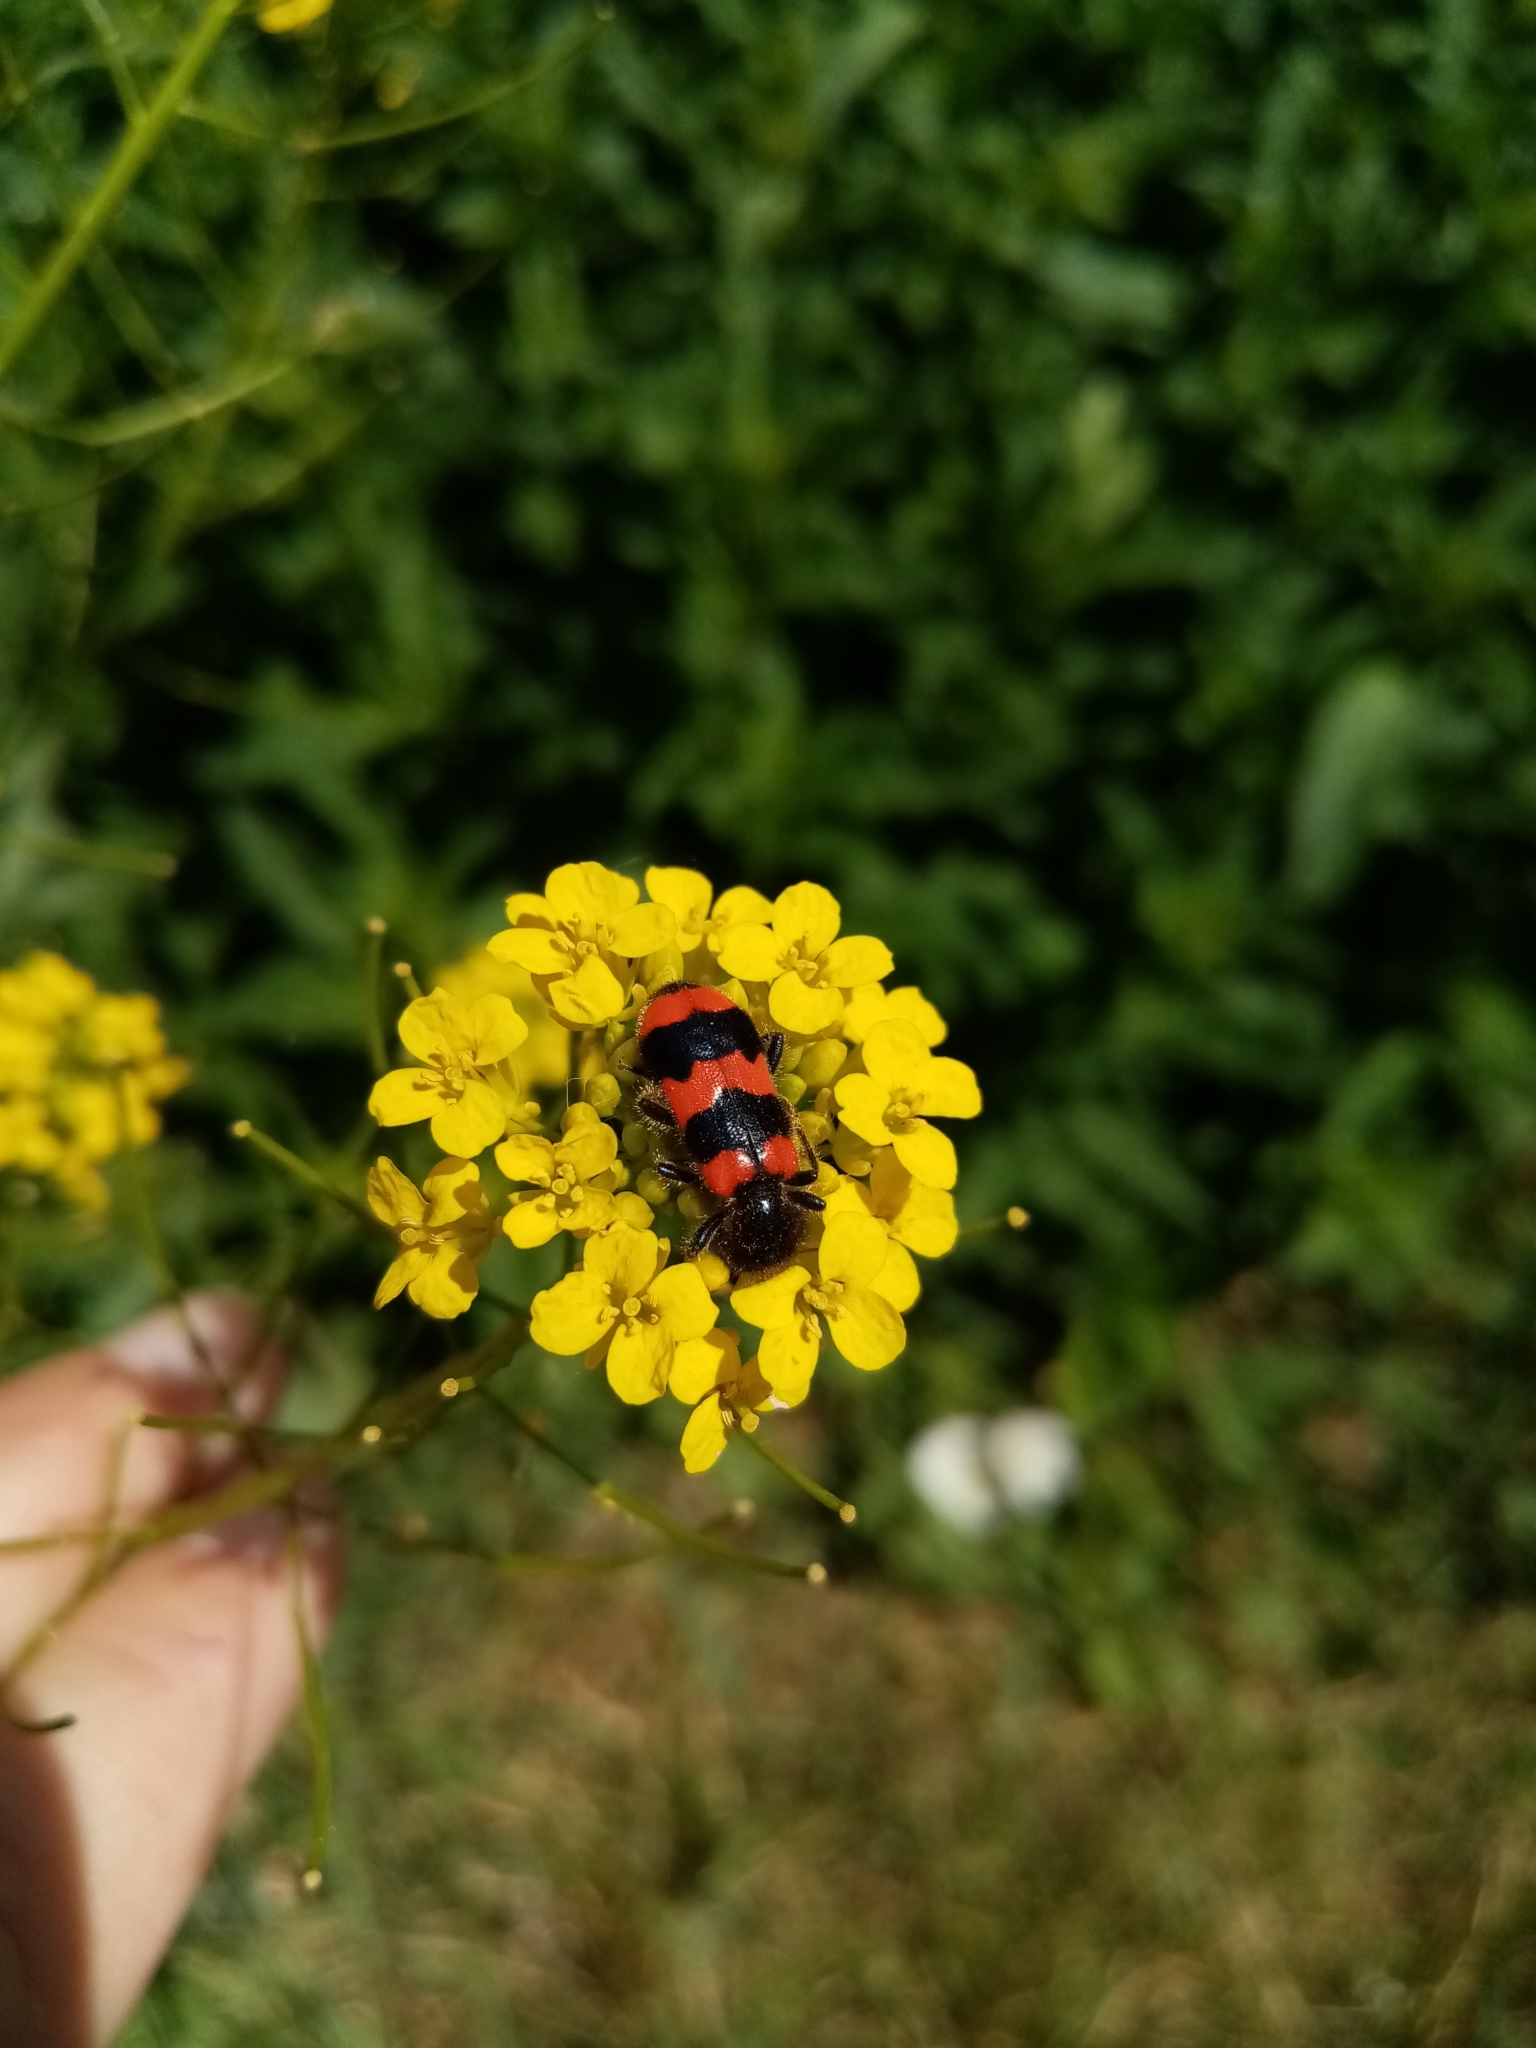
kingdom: Animalia
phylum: Arthropoda
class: Insecta
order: Coleoptera
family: Cleridae
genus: Trichodes
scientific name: Trichodes apiarius
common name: Bee-eating beetle
